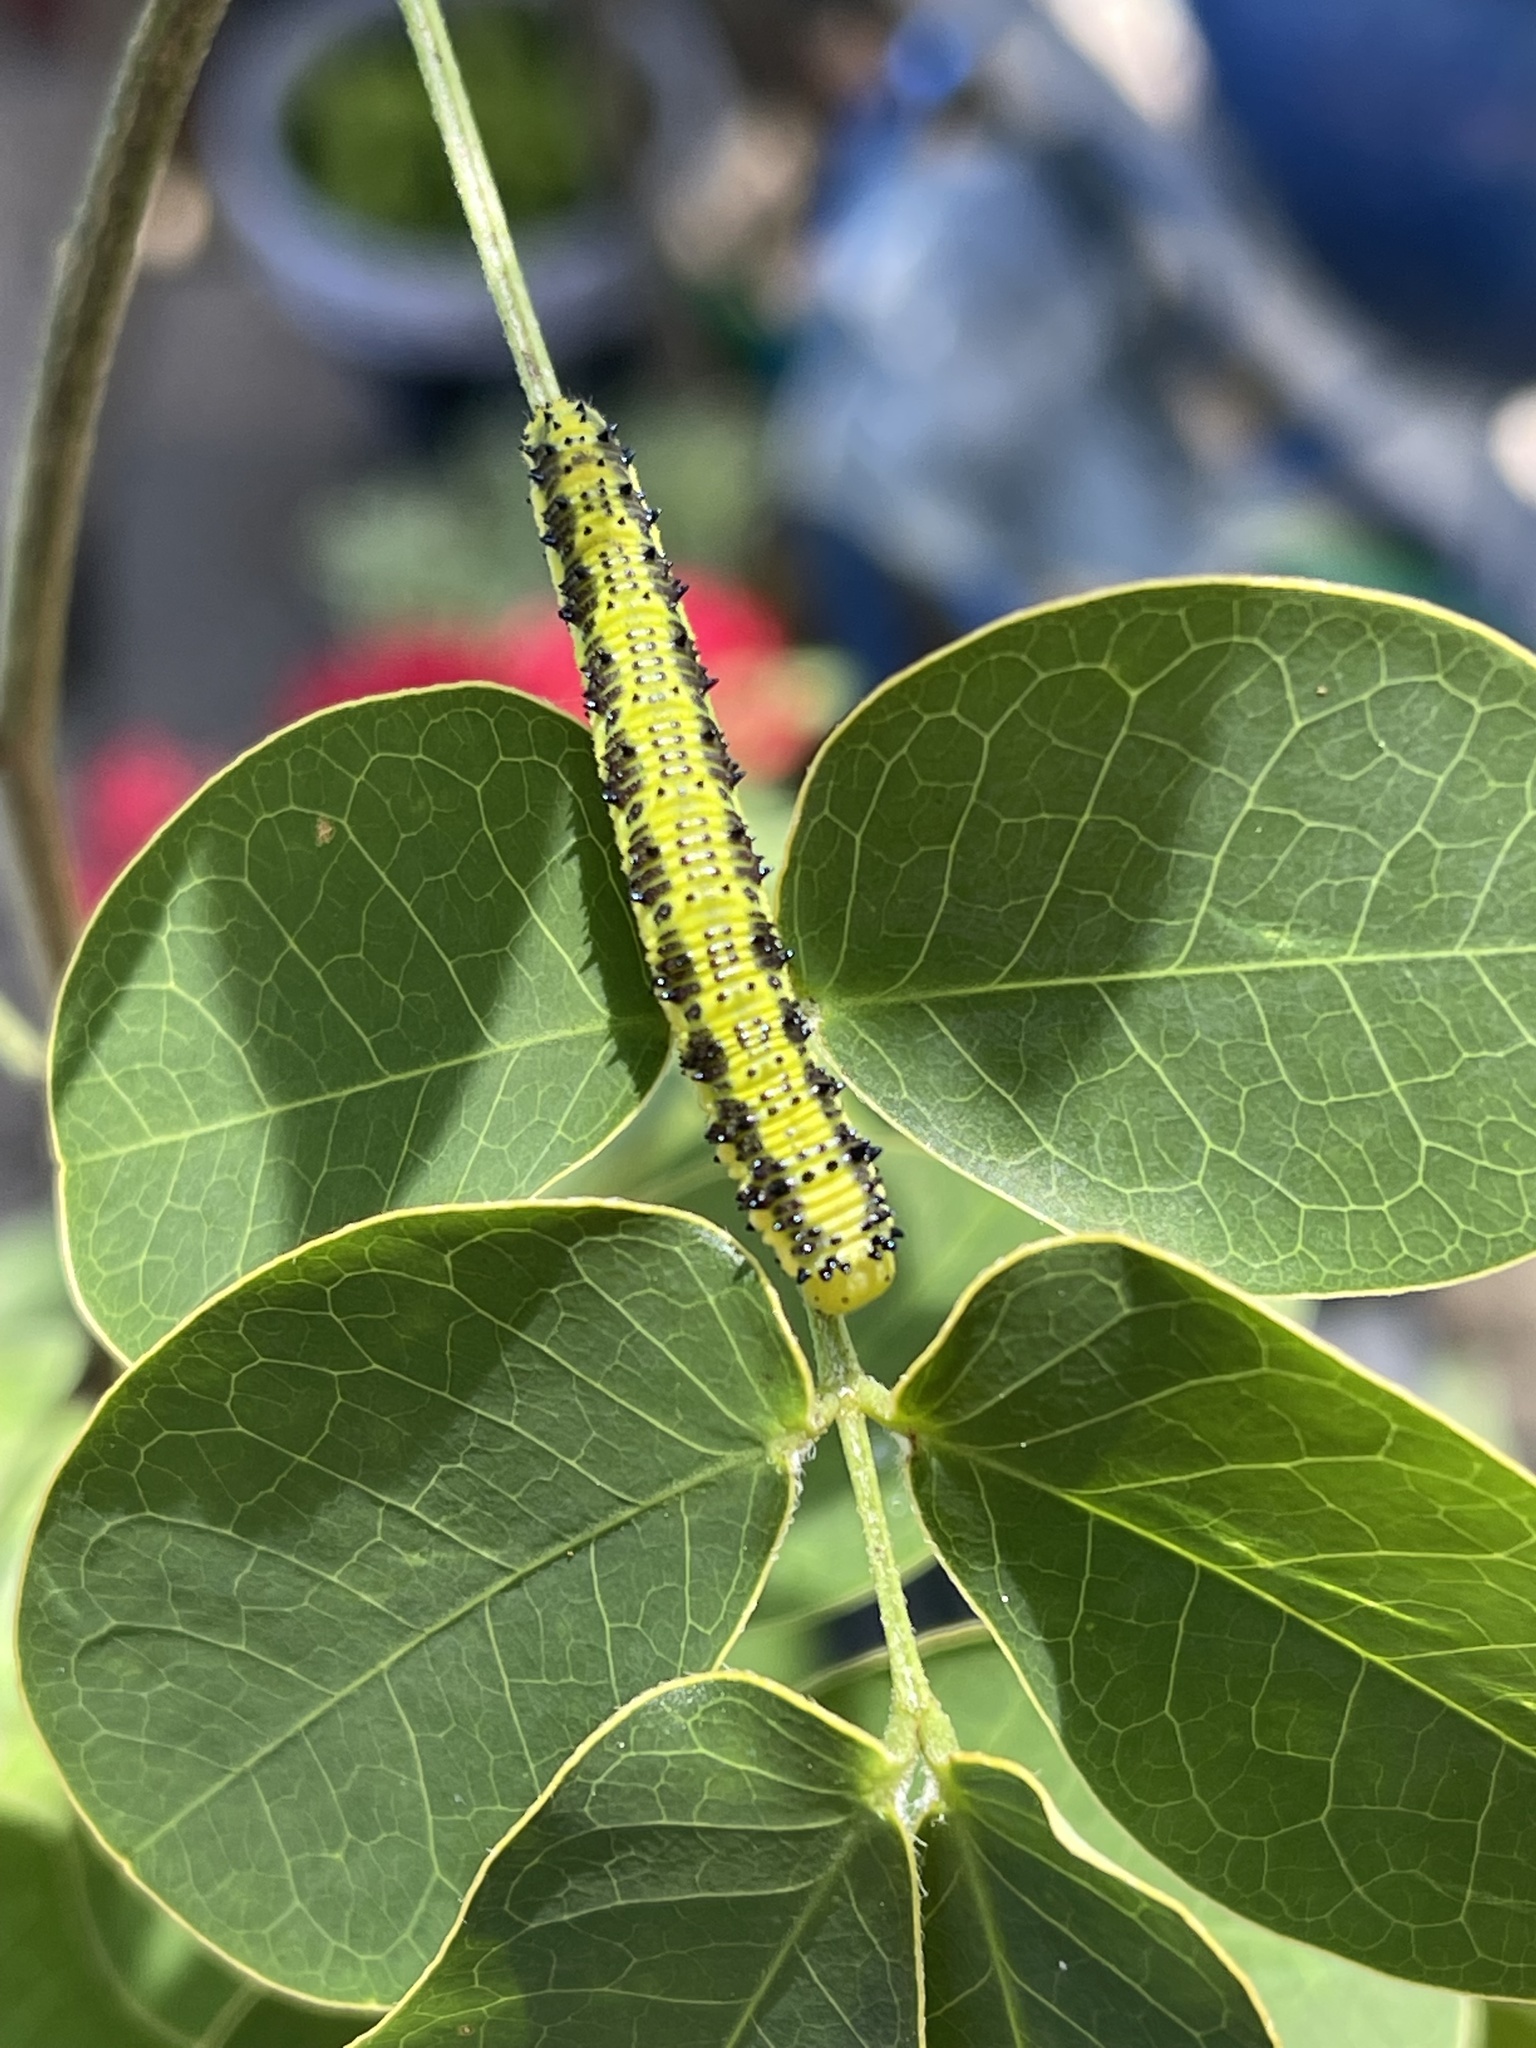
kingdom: Animalia
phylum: Arthropoda
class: Insecta
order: Lepidoptera
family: Pieridae
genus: Phoebis
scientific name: Phoebis philea
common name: Orange-barred giant sulphur
